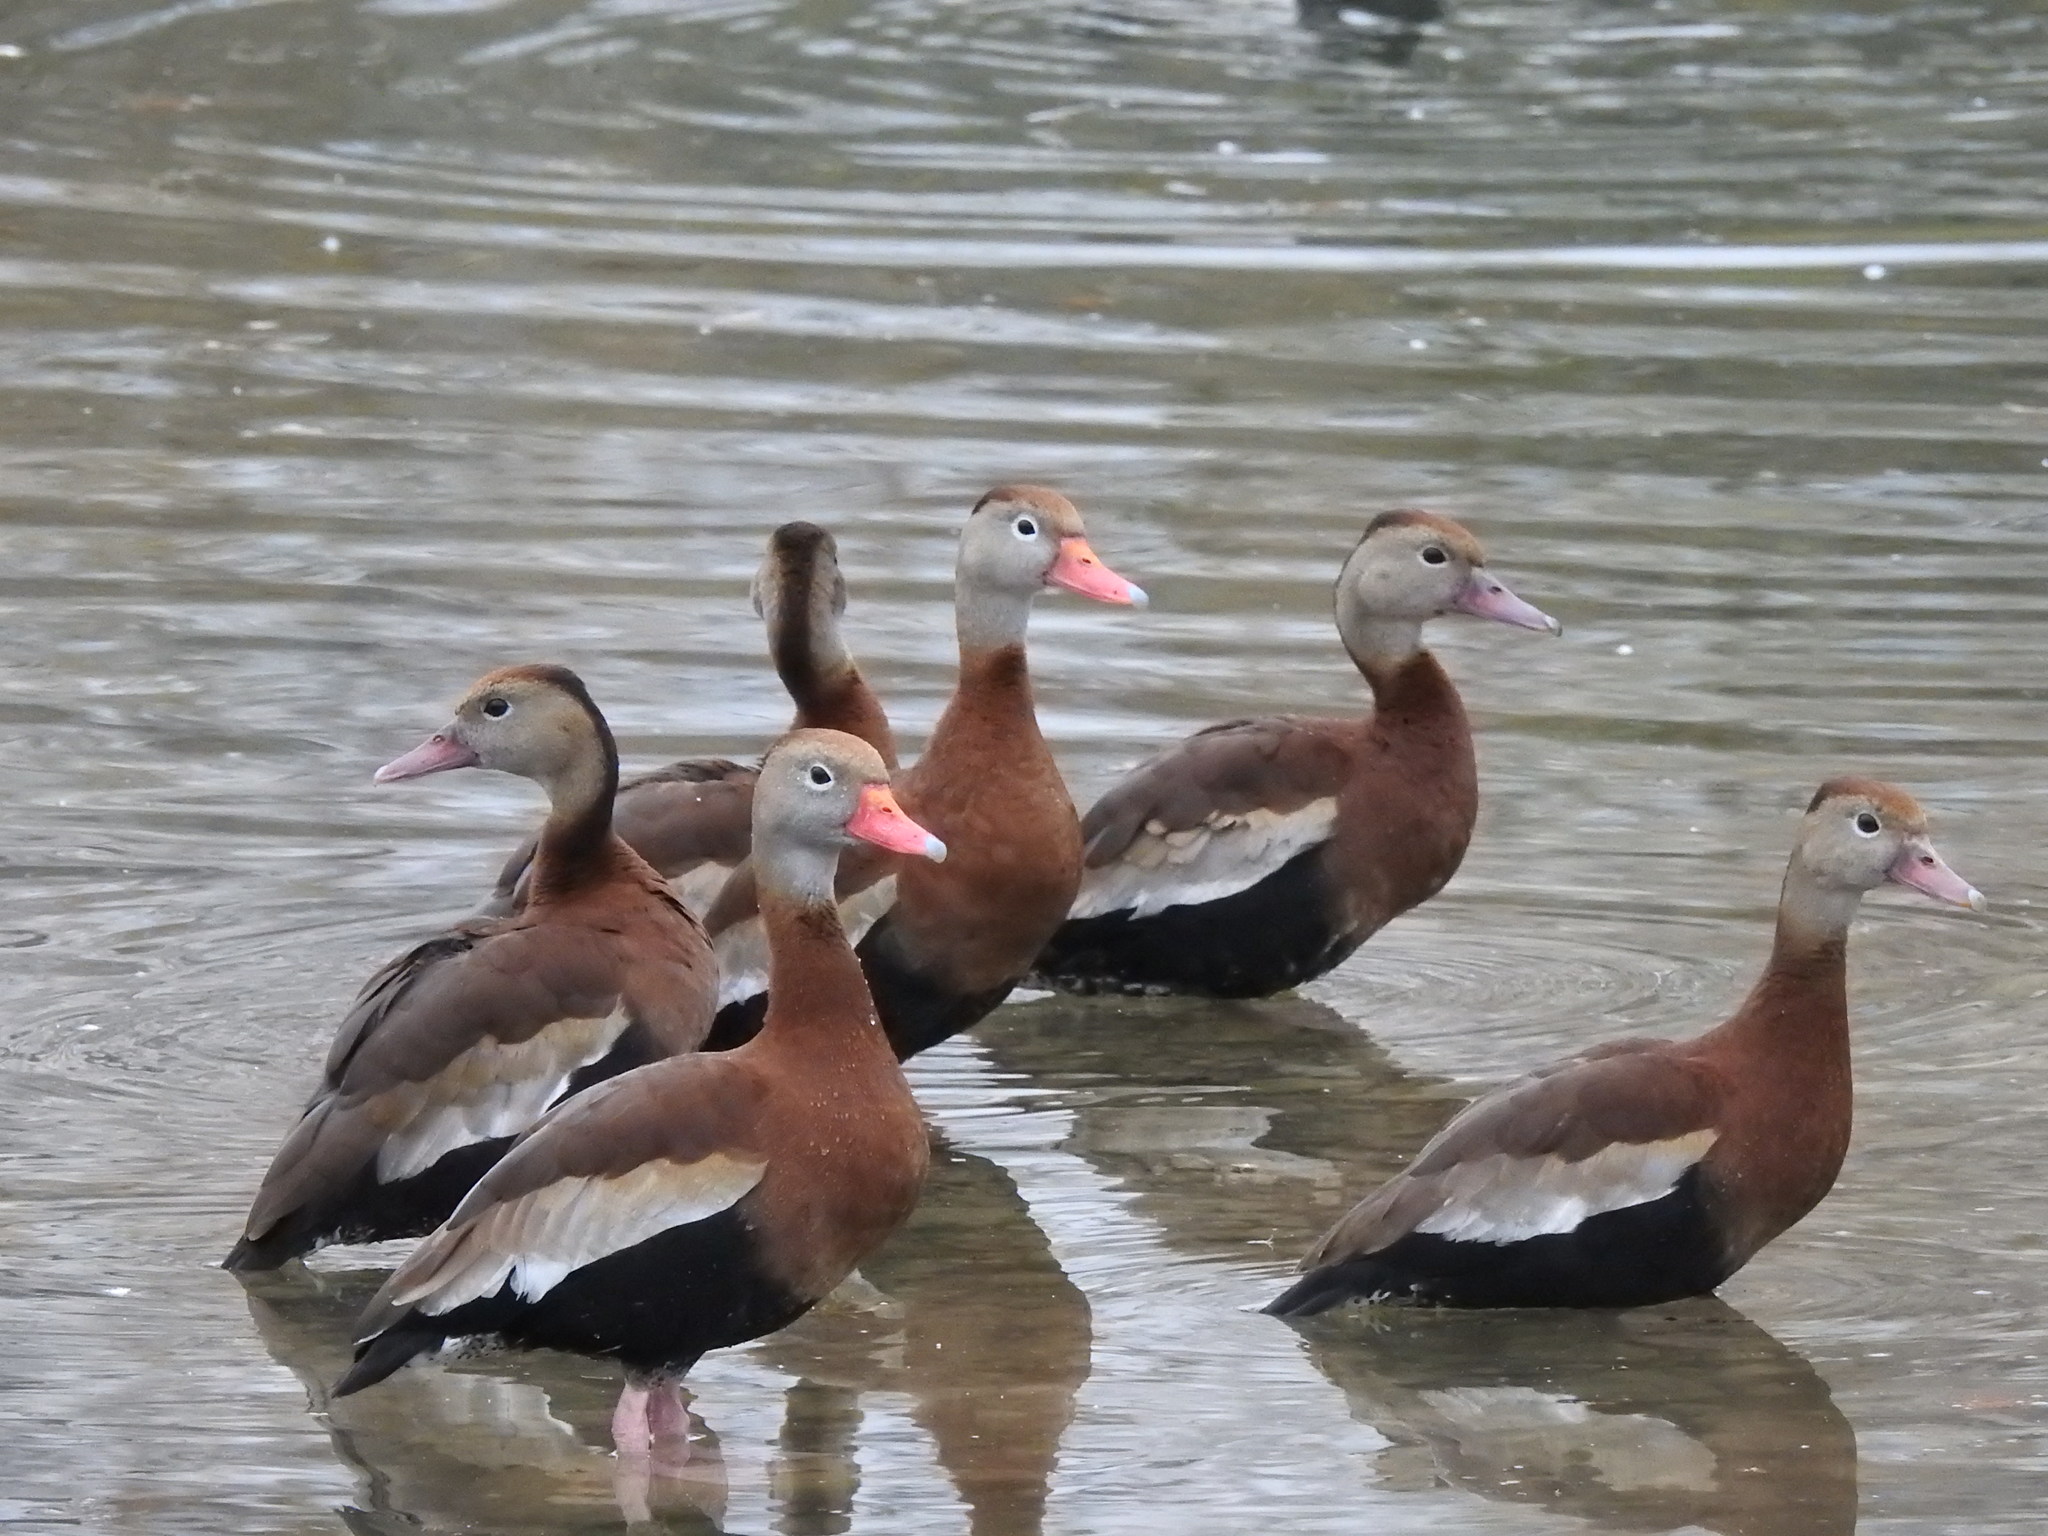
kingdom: Animalia
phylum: Chordata
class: Aves
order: Anseriformes
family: Anatidae
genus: Dendrocygna
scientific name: Dendrocygna autumnalis
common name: Black-bellied whistling duck
